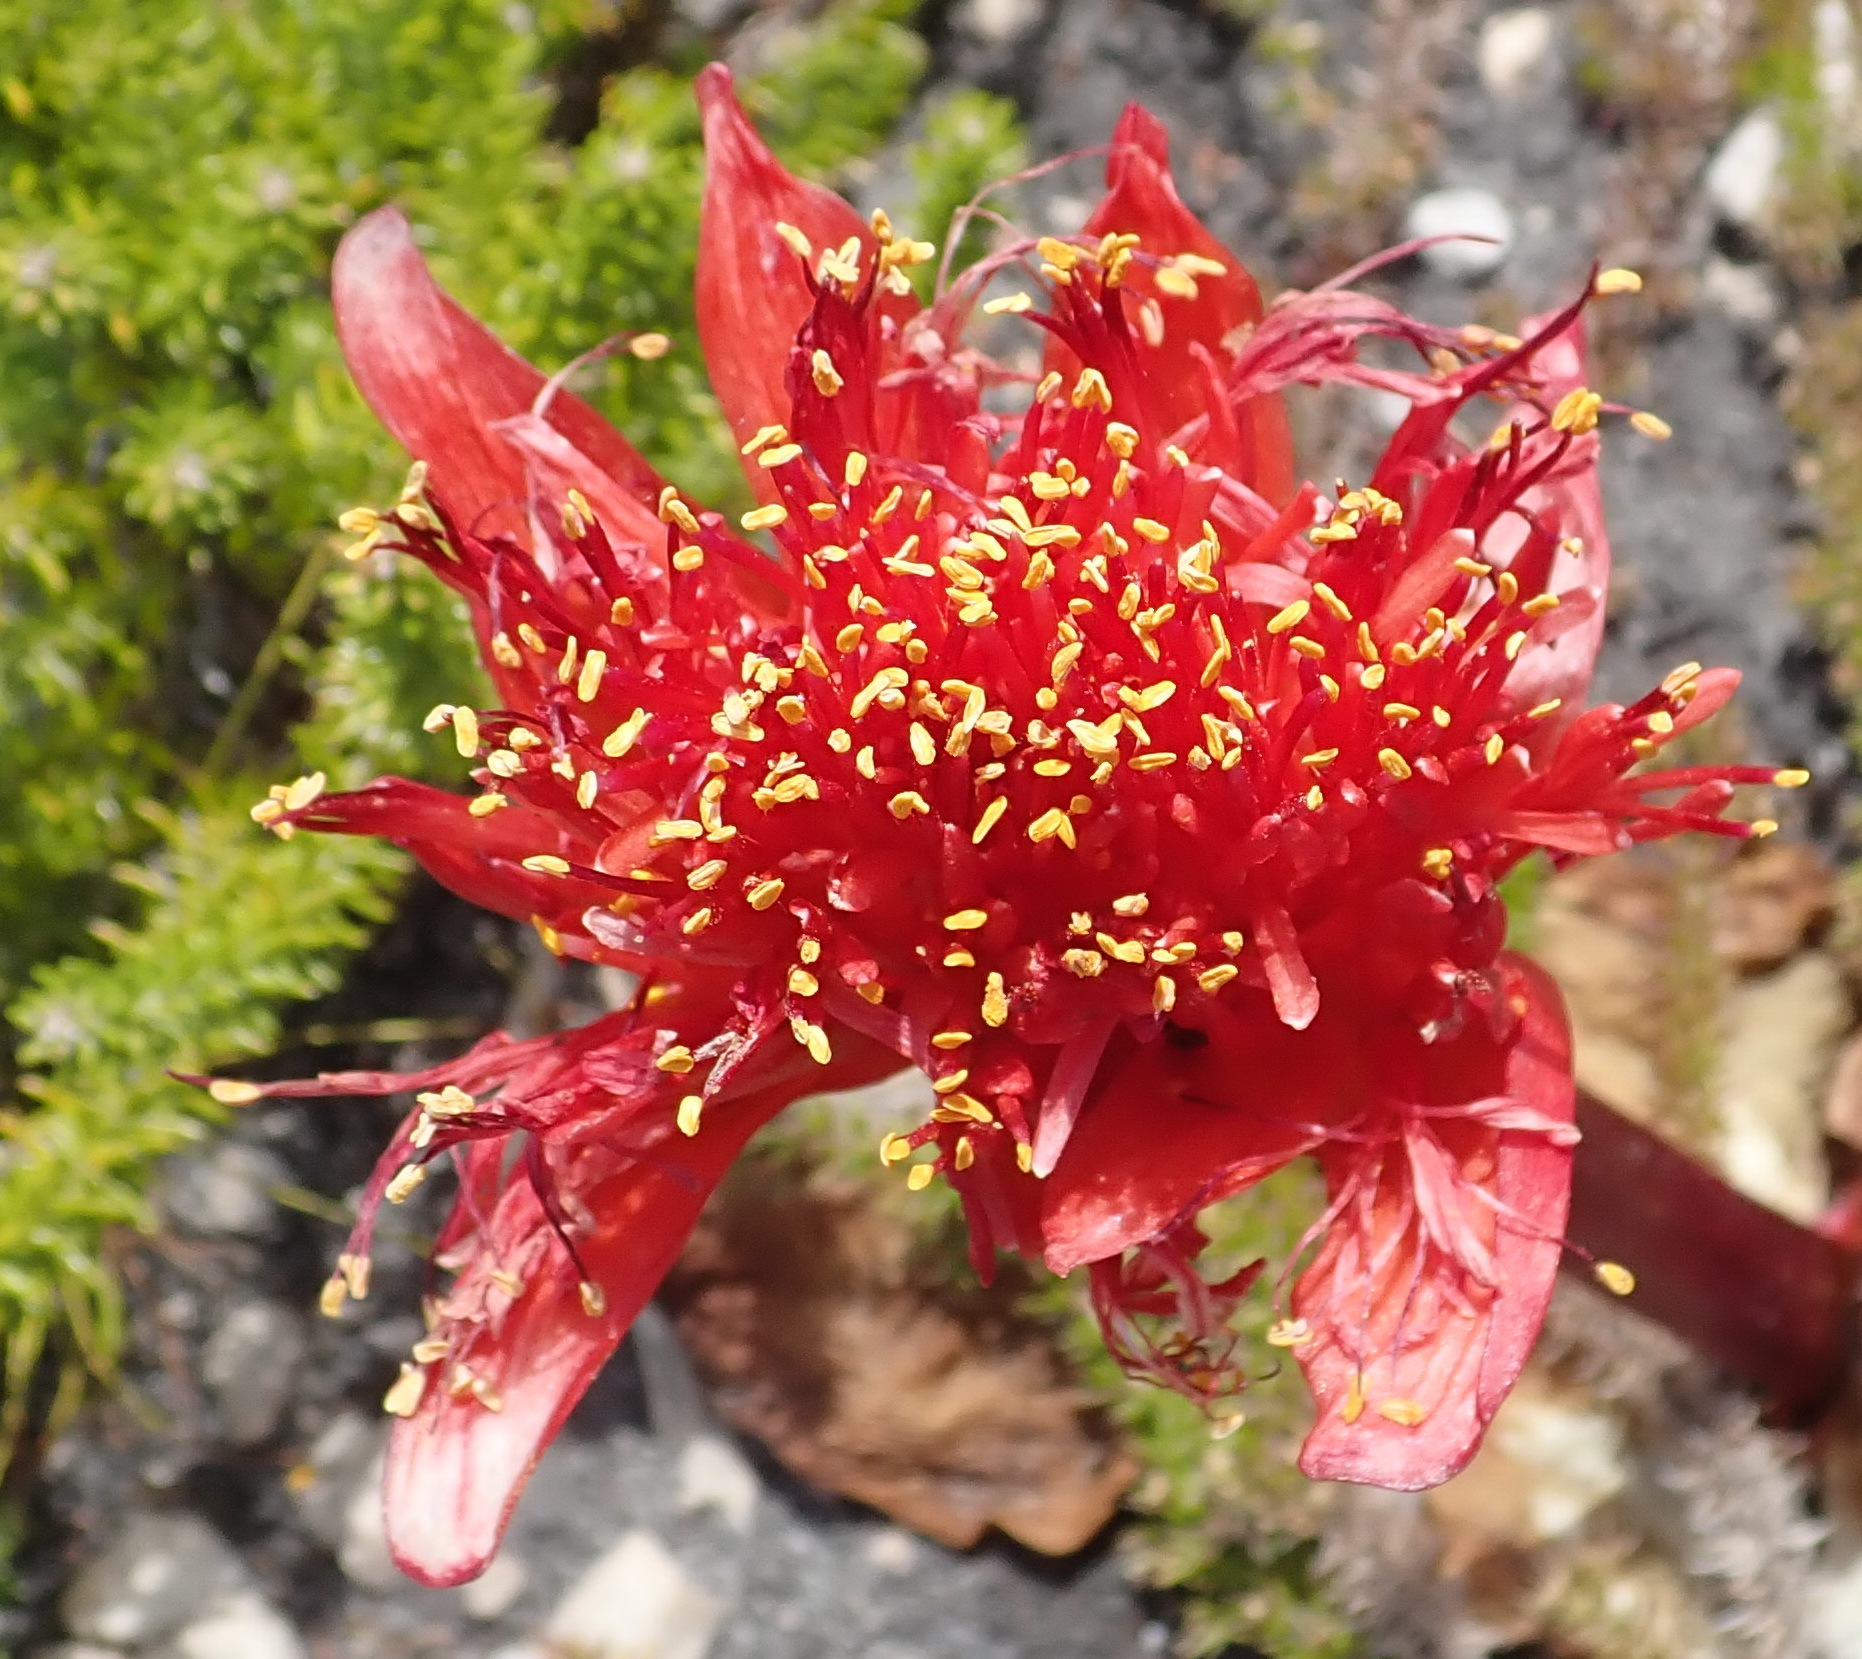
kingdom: Plantae
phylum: Tracheophyta
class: Liliopsida
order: Asparagales
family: Amaryllidaceae
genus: Haemanthus
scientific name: Haemanthus sanguineus
